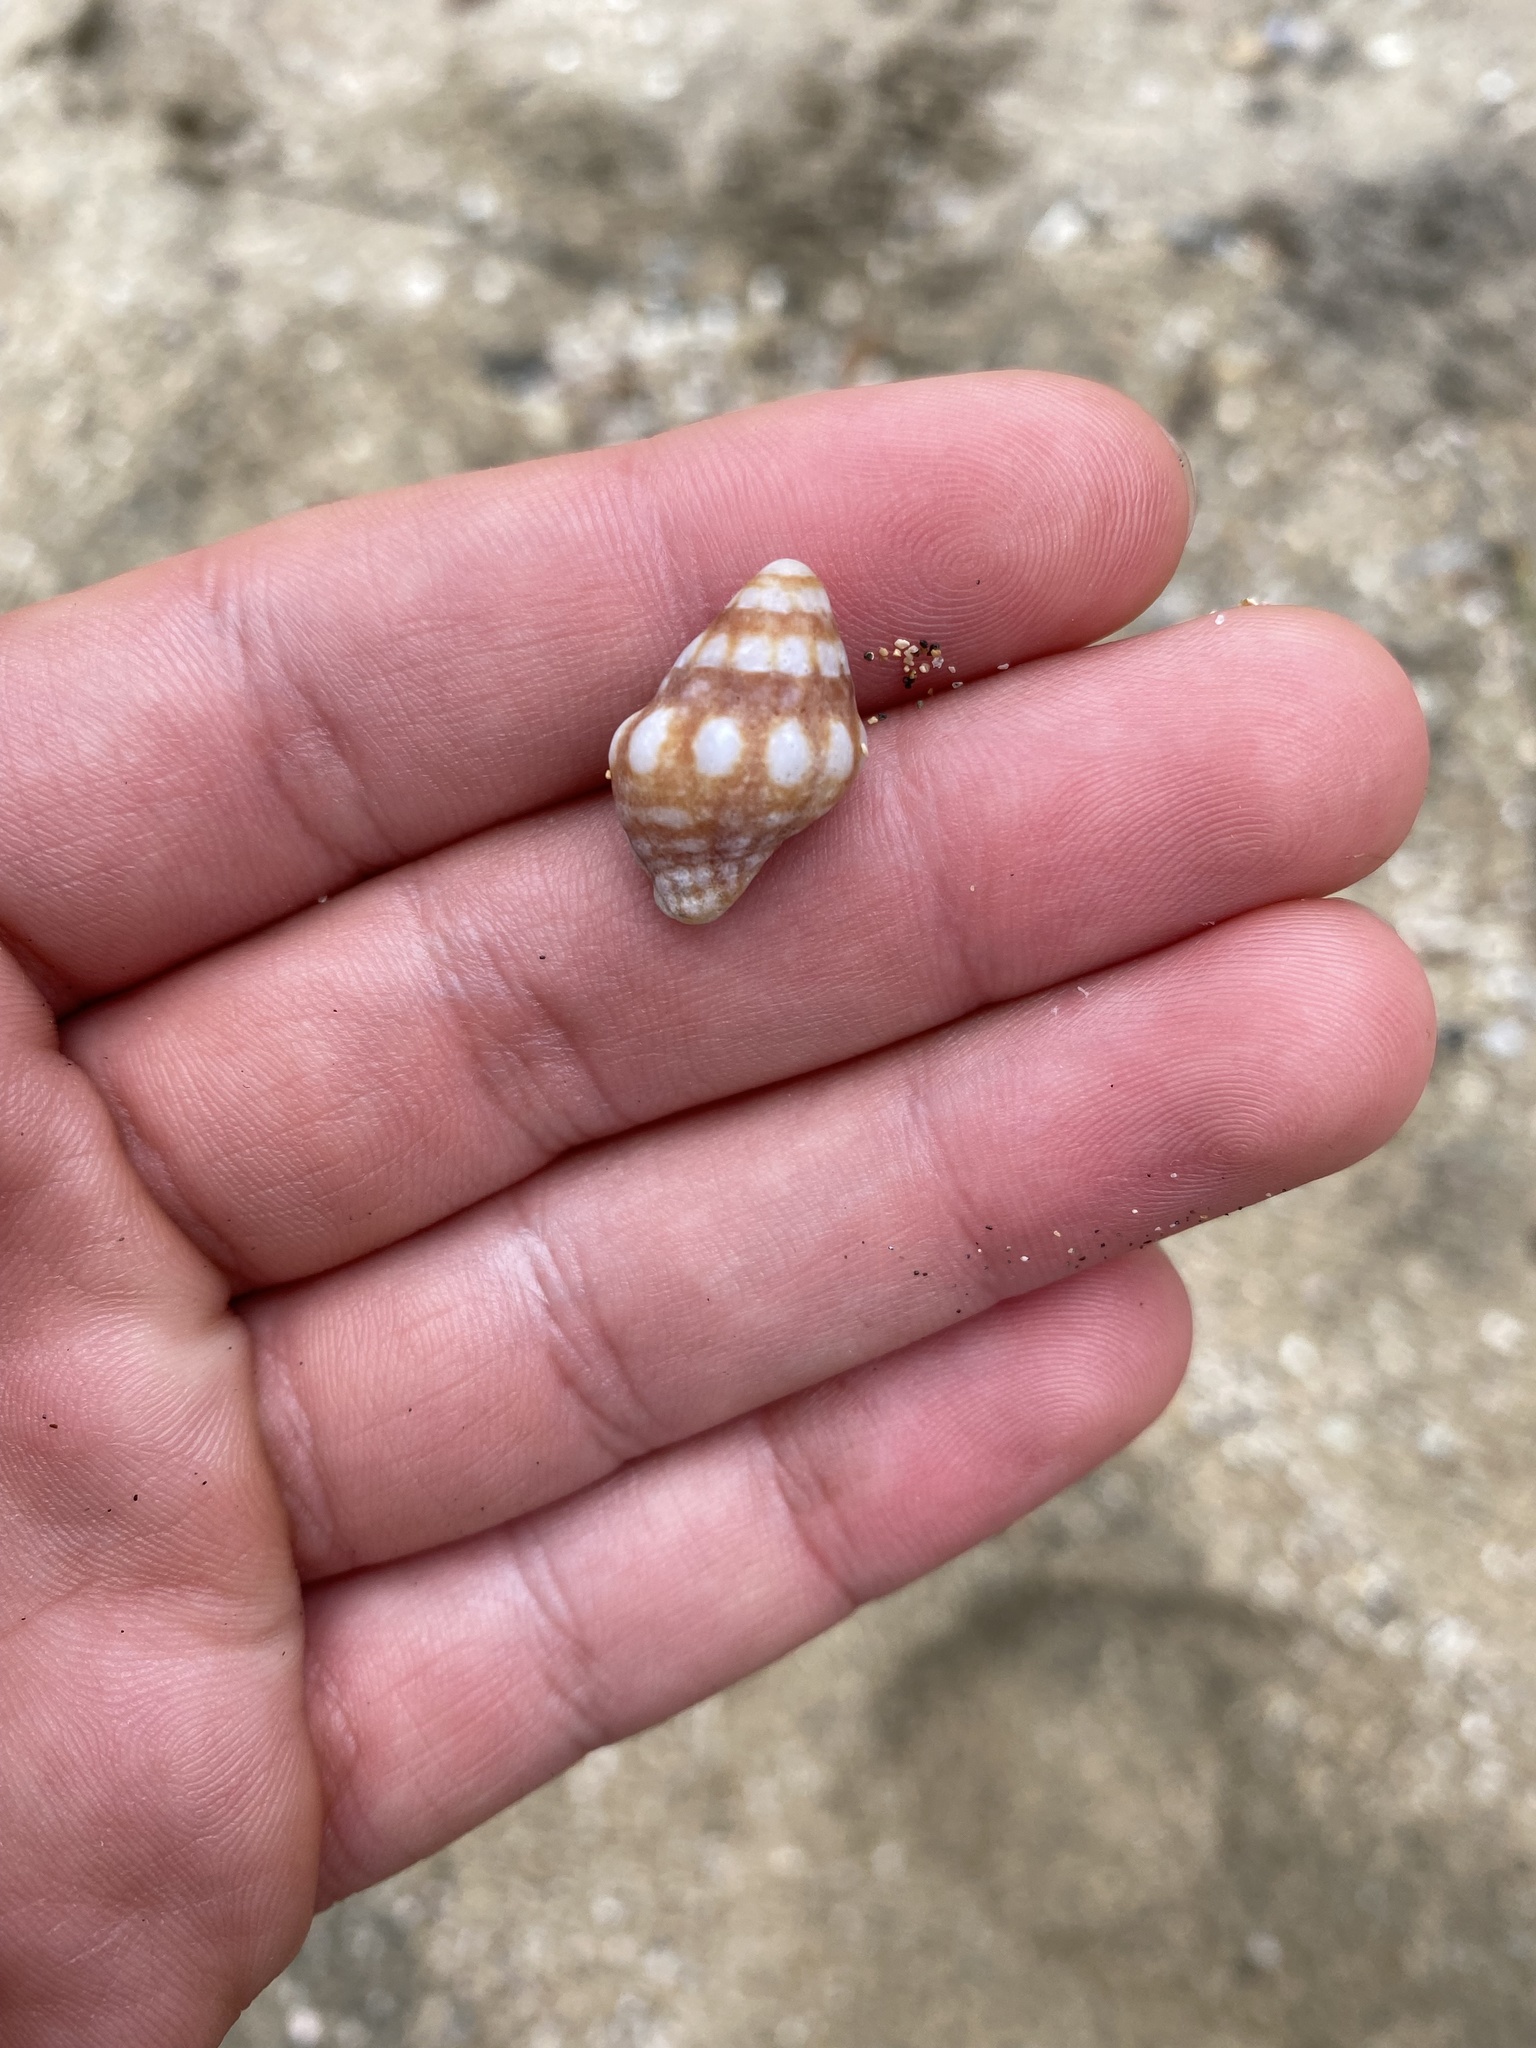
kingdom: Animalia
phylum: Mollusca
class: Gastropoda
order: Neogastropoda
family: Fasciolariidae
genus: Leucozonia
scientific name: Leucozonia ocellata
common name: White-spot latirus
